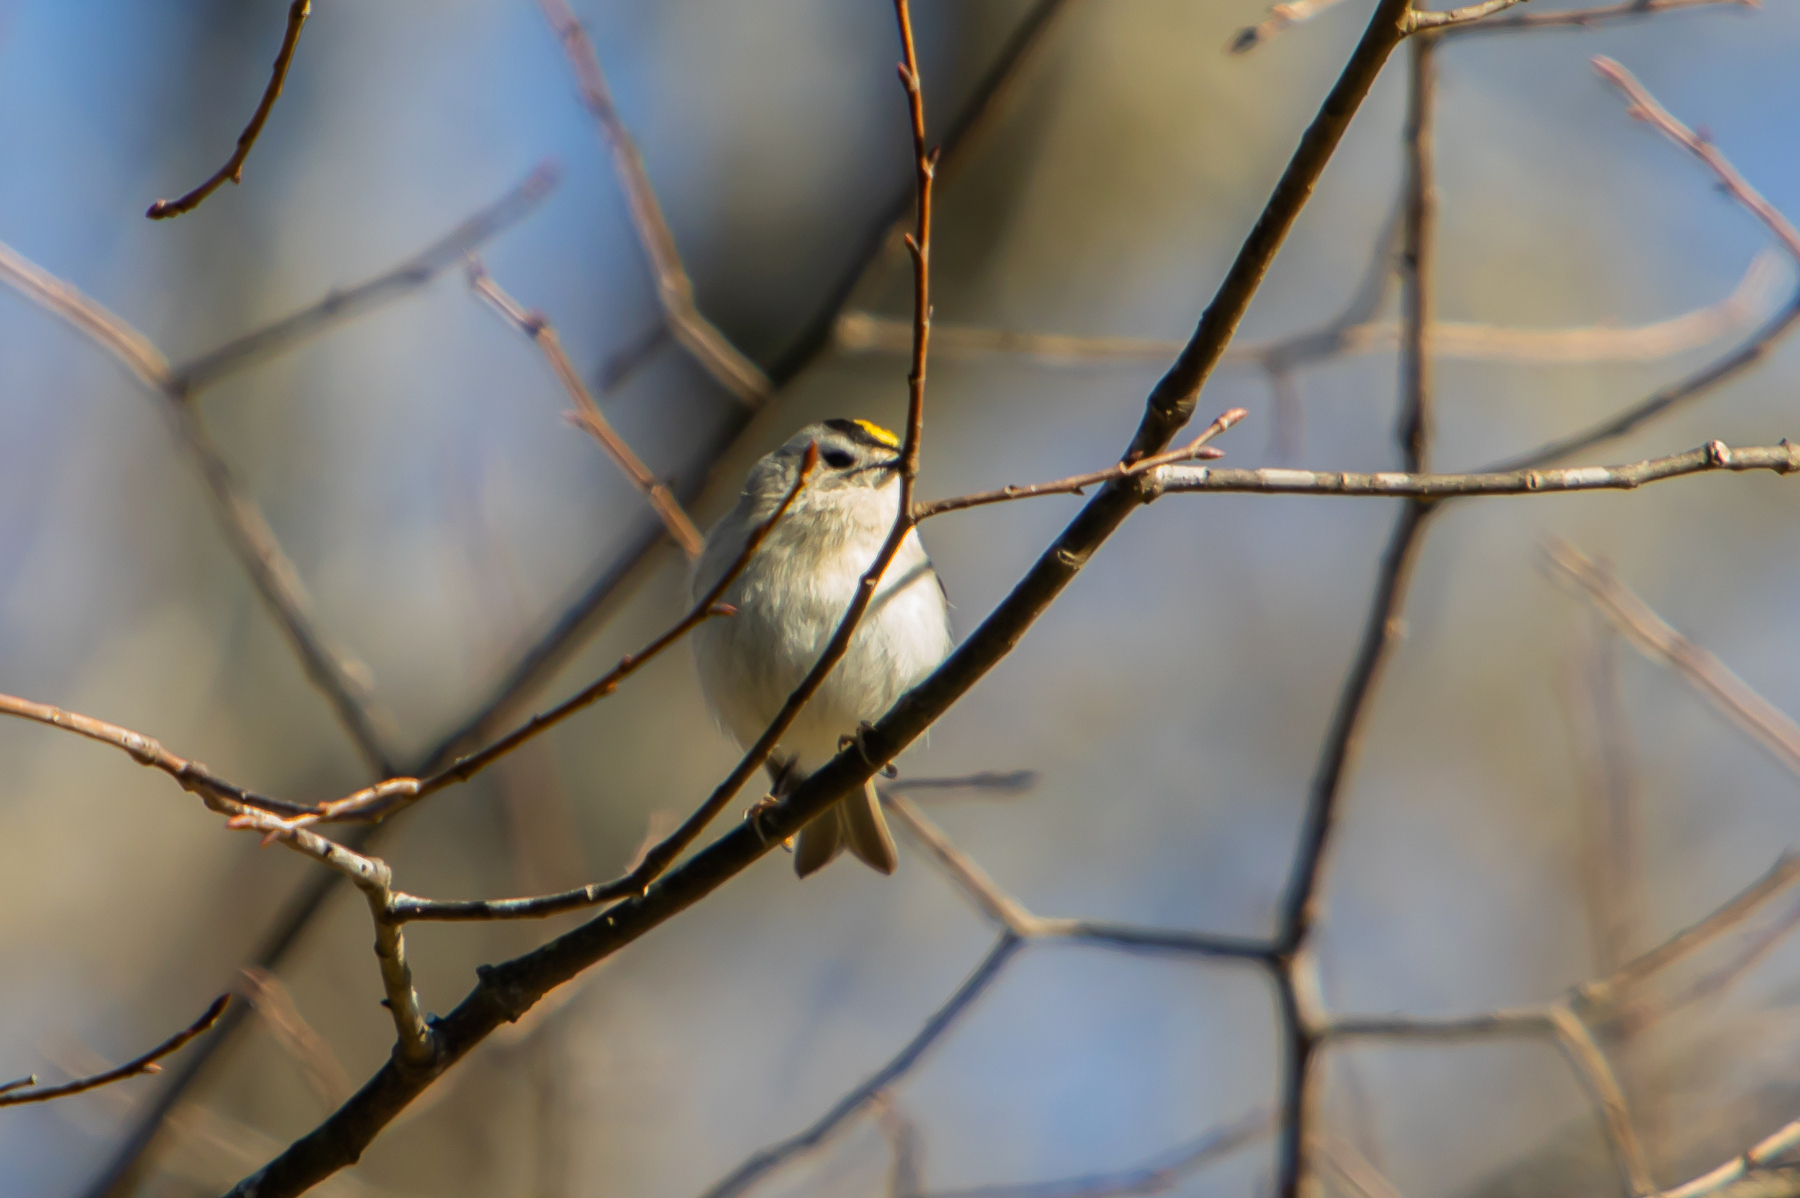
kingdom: Animalia
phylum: Chordata
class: Aves
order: Passeriformes
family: Regulidae
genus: Regulus
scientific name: Regulus satrapa
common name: Golden-crowned kinglet
